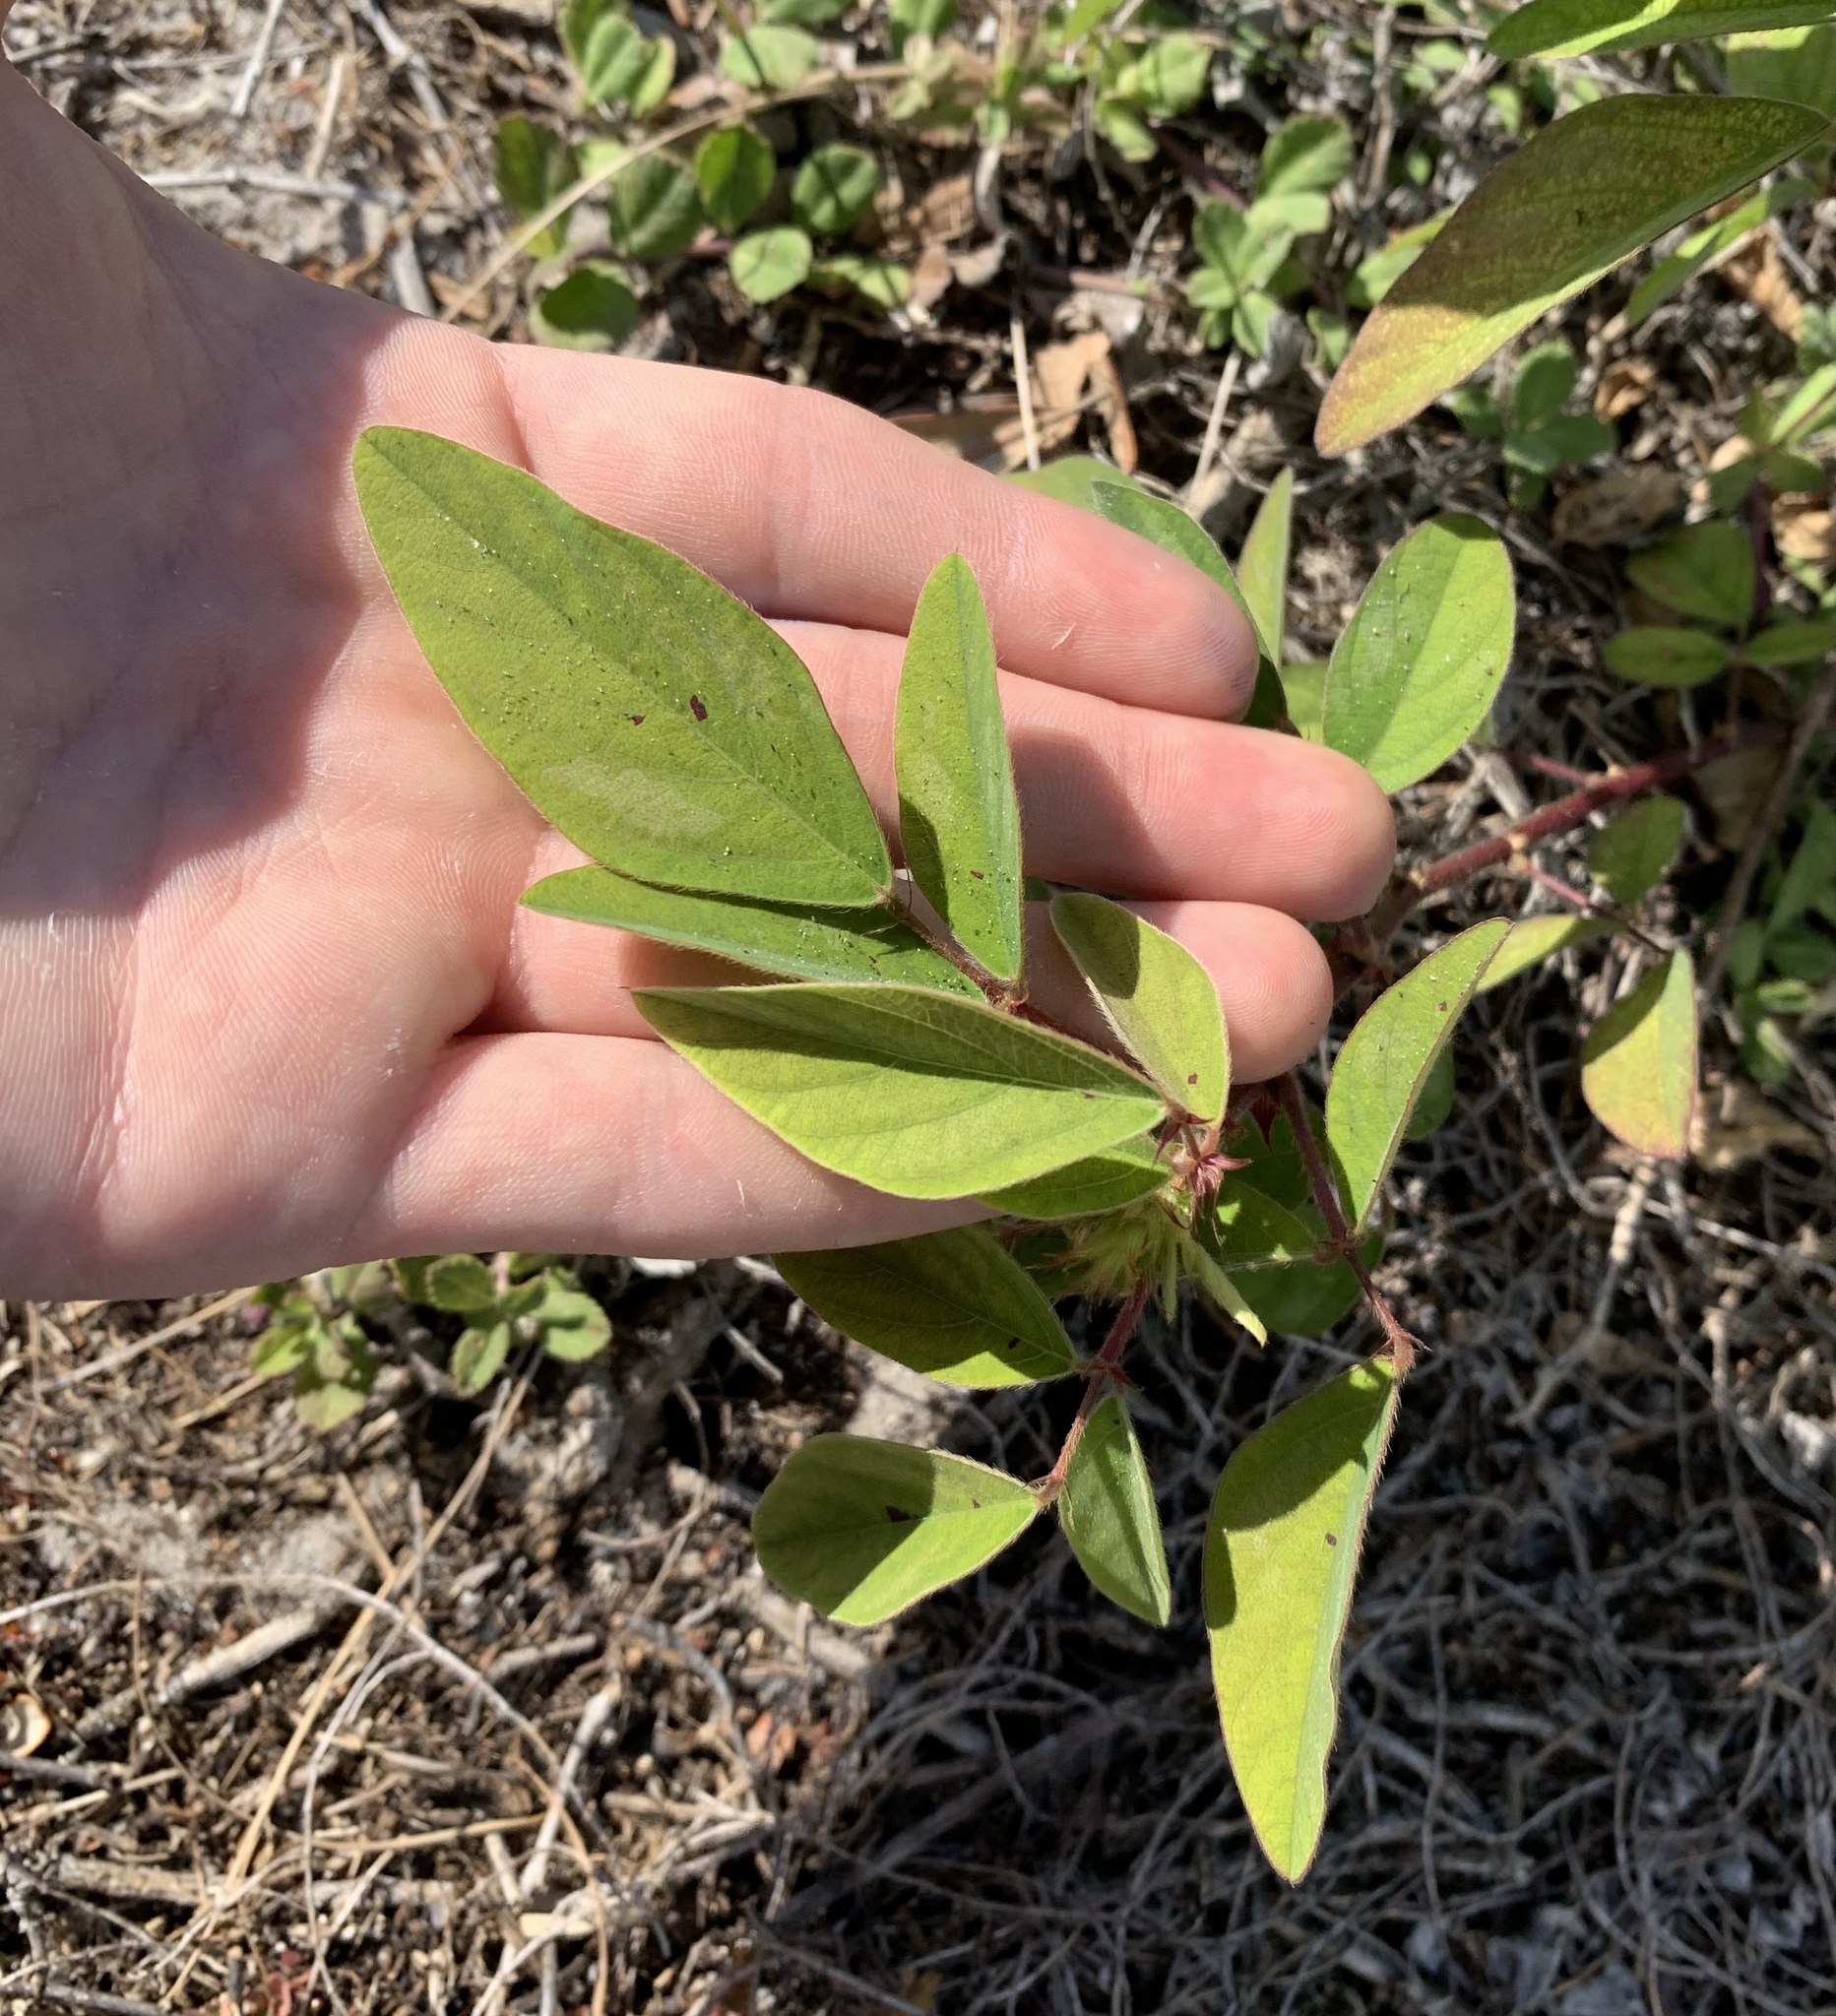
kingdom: Plantae
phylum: Tracheophyta
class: Magnoliopsida
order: Fabales
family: Fabaceae
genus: Desmodium
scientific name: Desmodium tortuosum
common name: Dixie ticktrefoil
